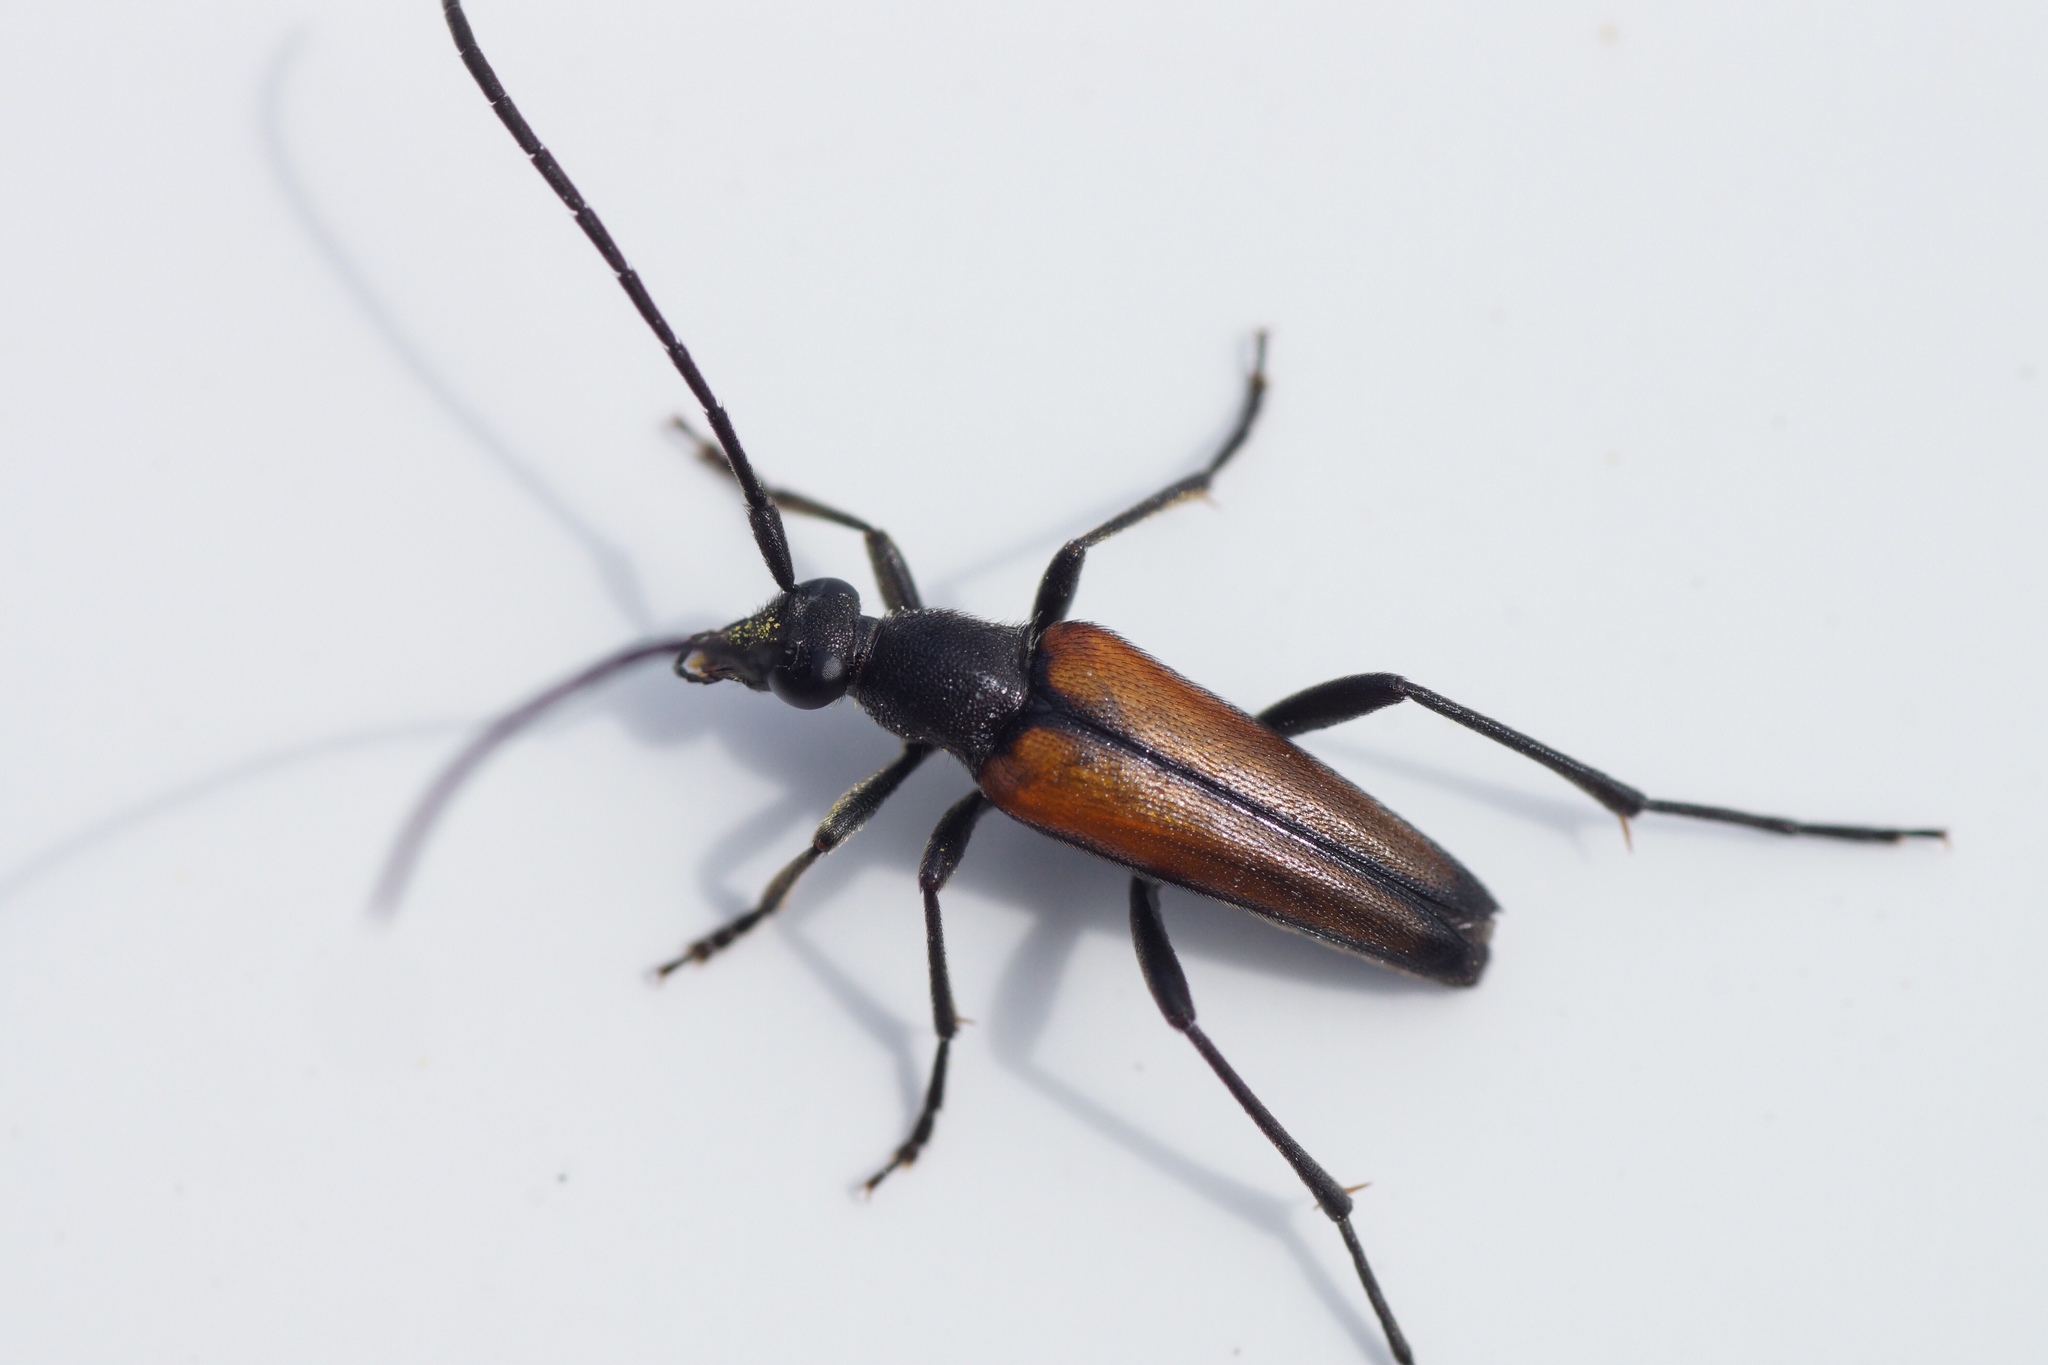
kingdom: Animalia
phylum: Arthropoda
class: Insecta
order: Coleoptera
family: Cerambycidae
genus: Stenurella
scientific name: Stenurella melanura
